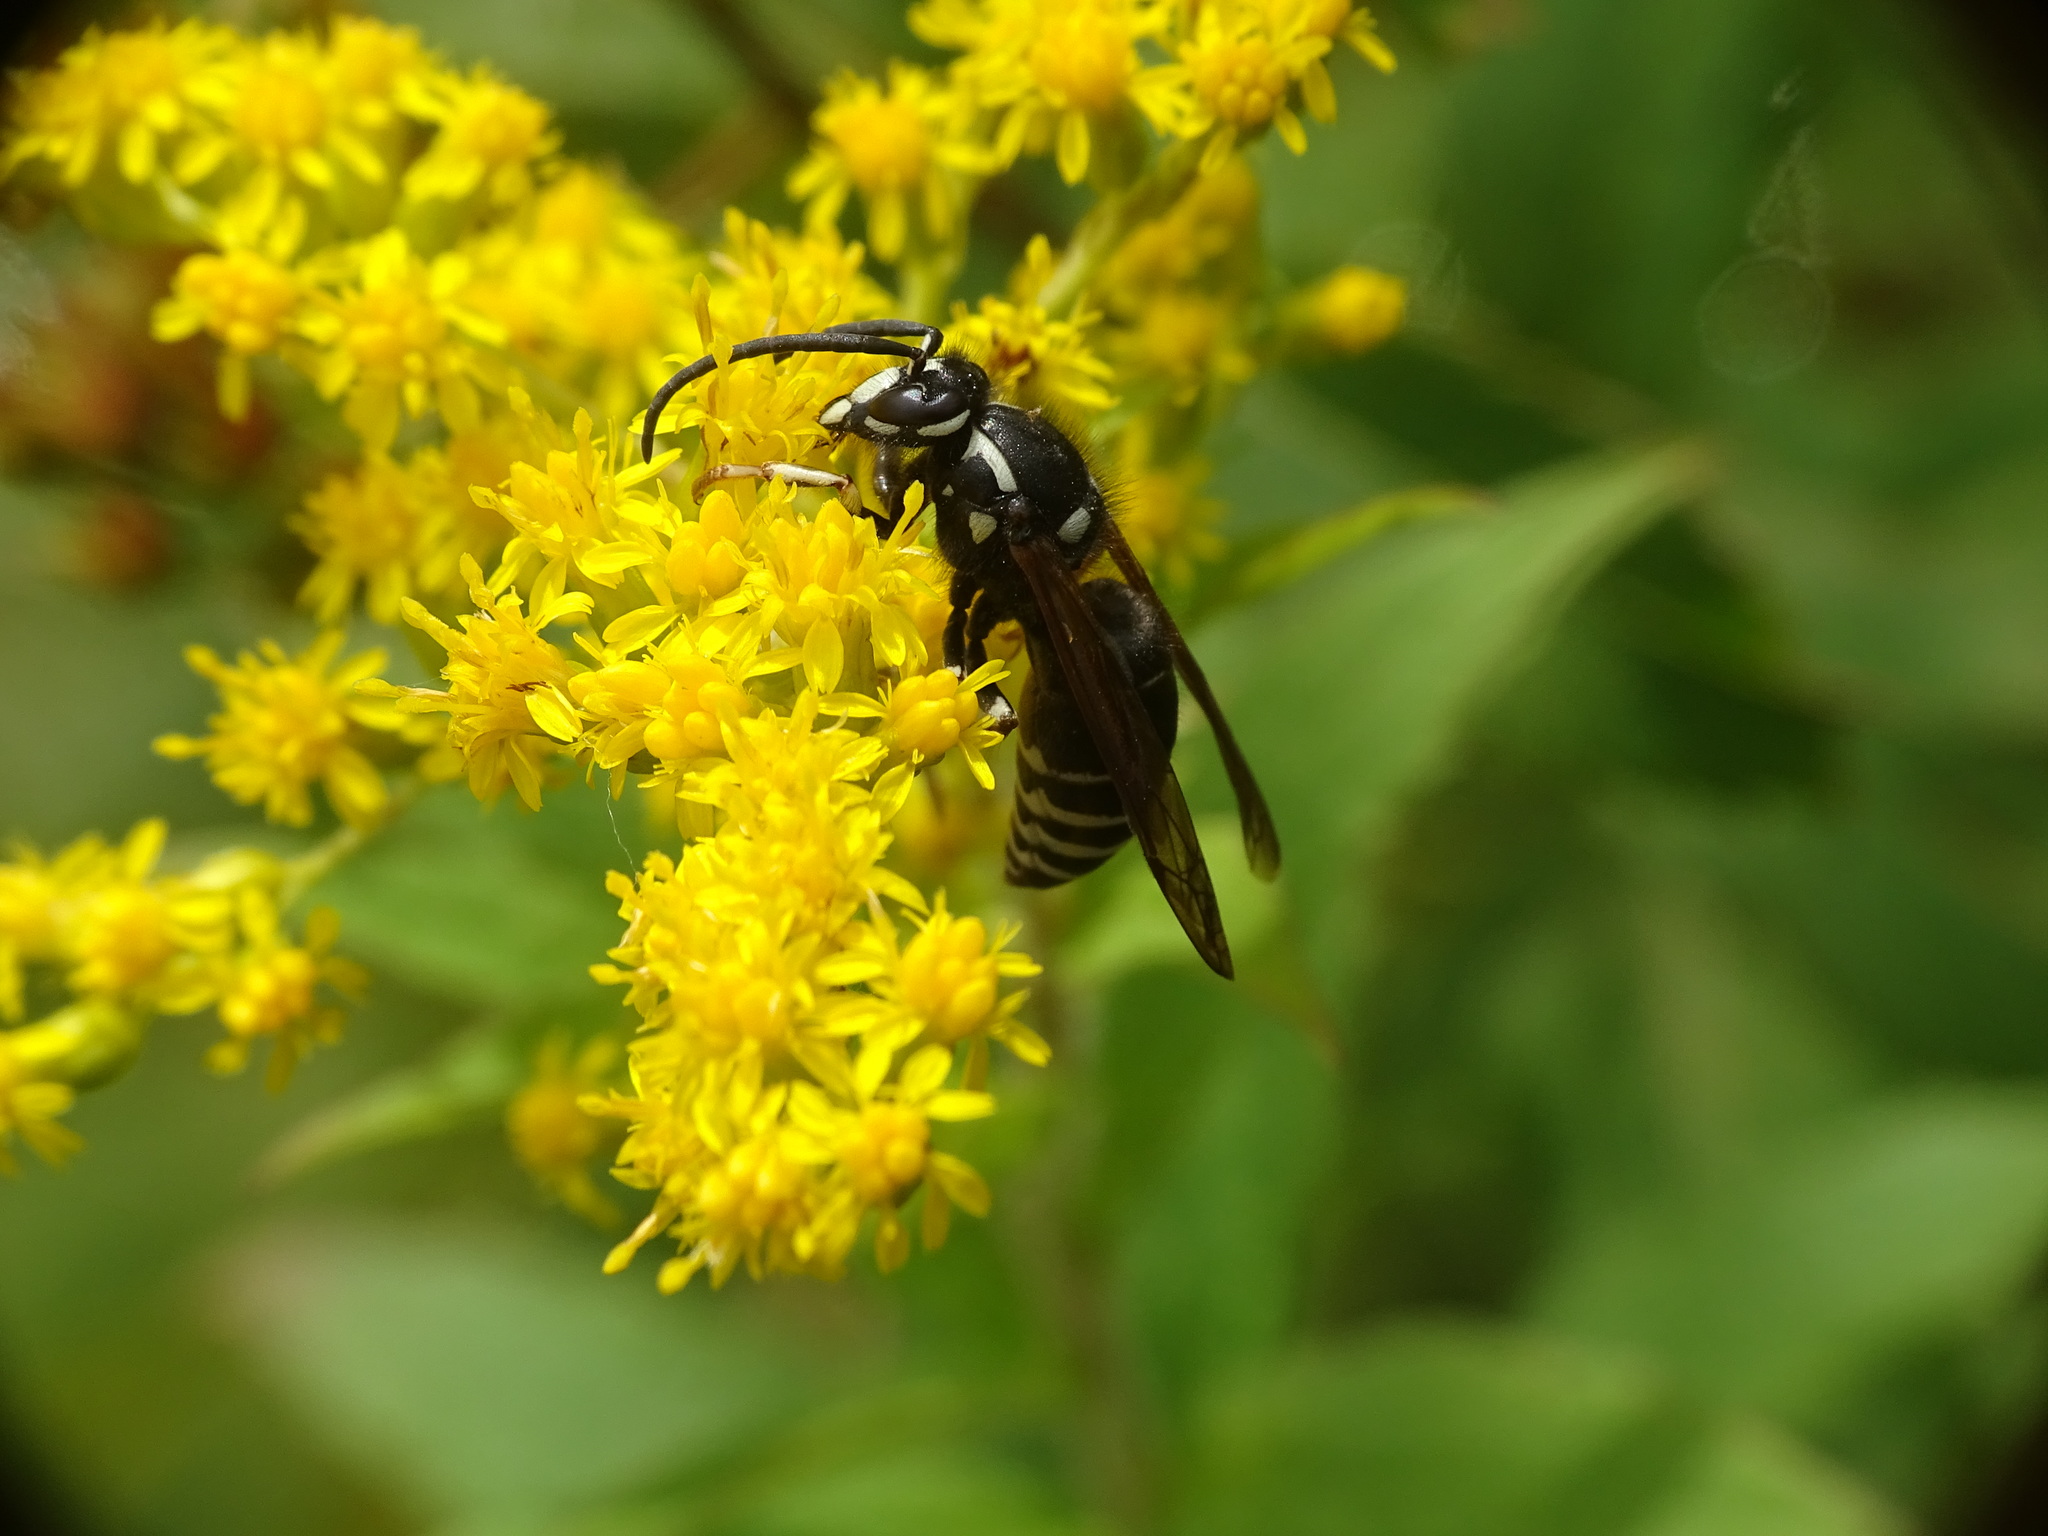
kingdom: Animalia
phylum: Arthropoda
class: Insecta
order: Hymenoptera
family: Vespidae
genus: Dolichovespula
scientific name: Dolichovespula adulterina
